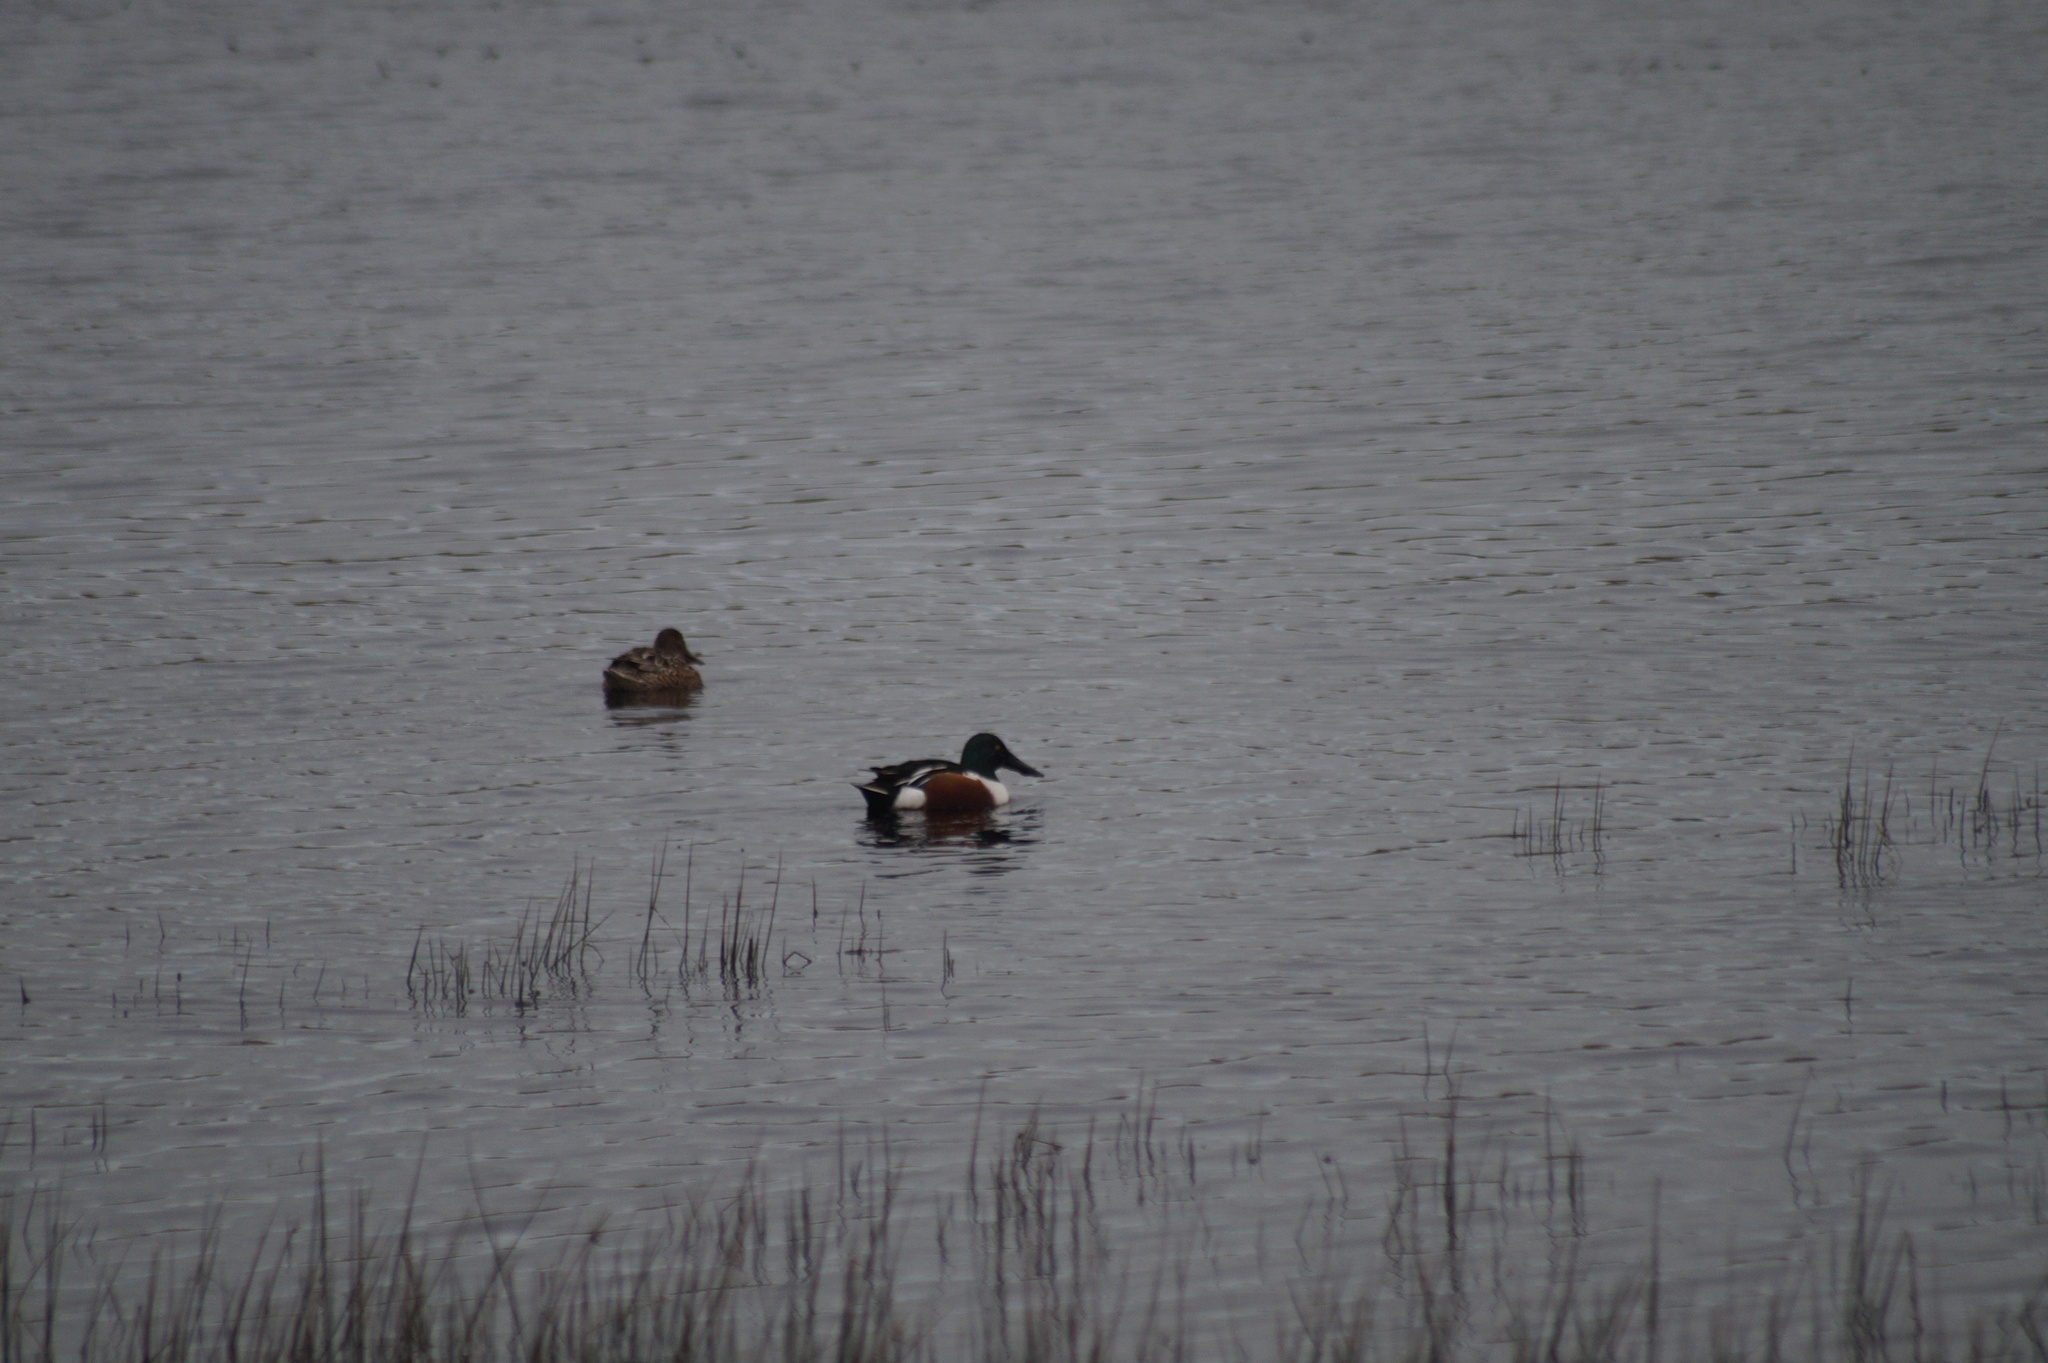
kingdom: Animalia
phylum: Chordata
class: Aves
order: Anseriformes
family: Anatidae
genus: Spatula
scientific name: Spatula clypeata
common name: Northern shoveler
